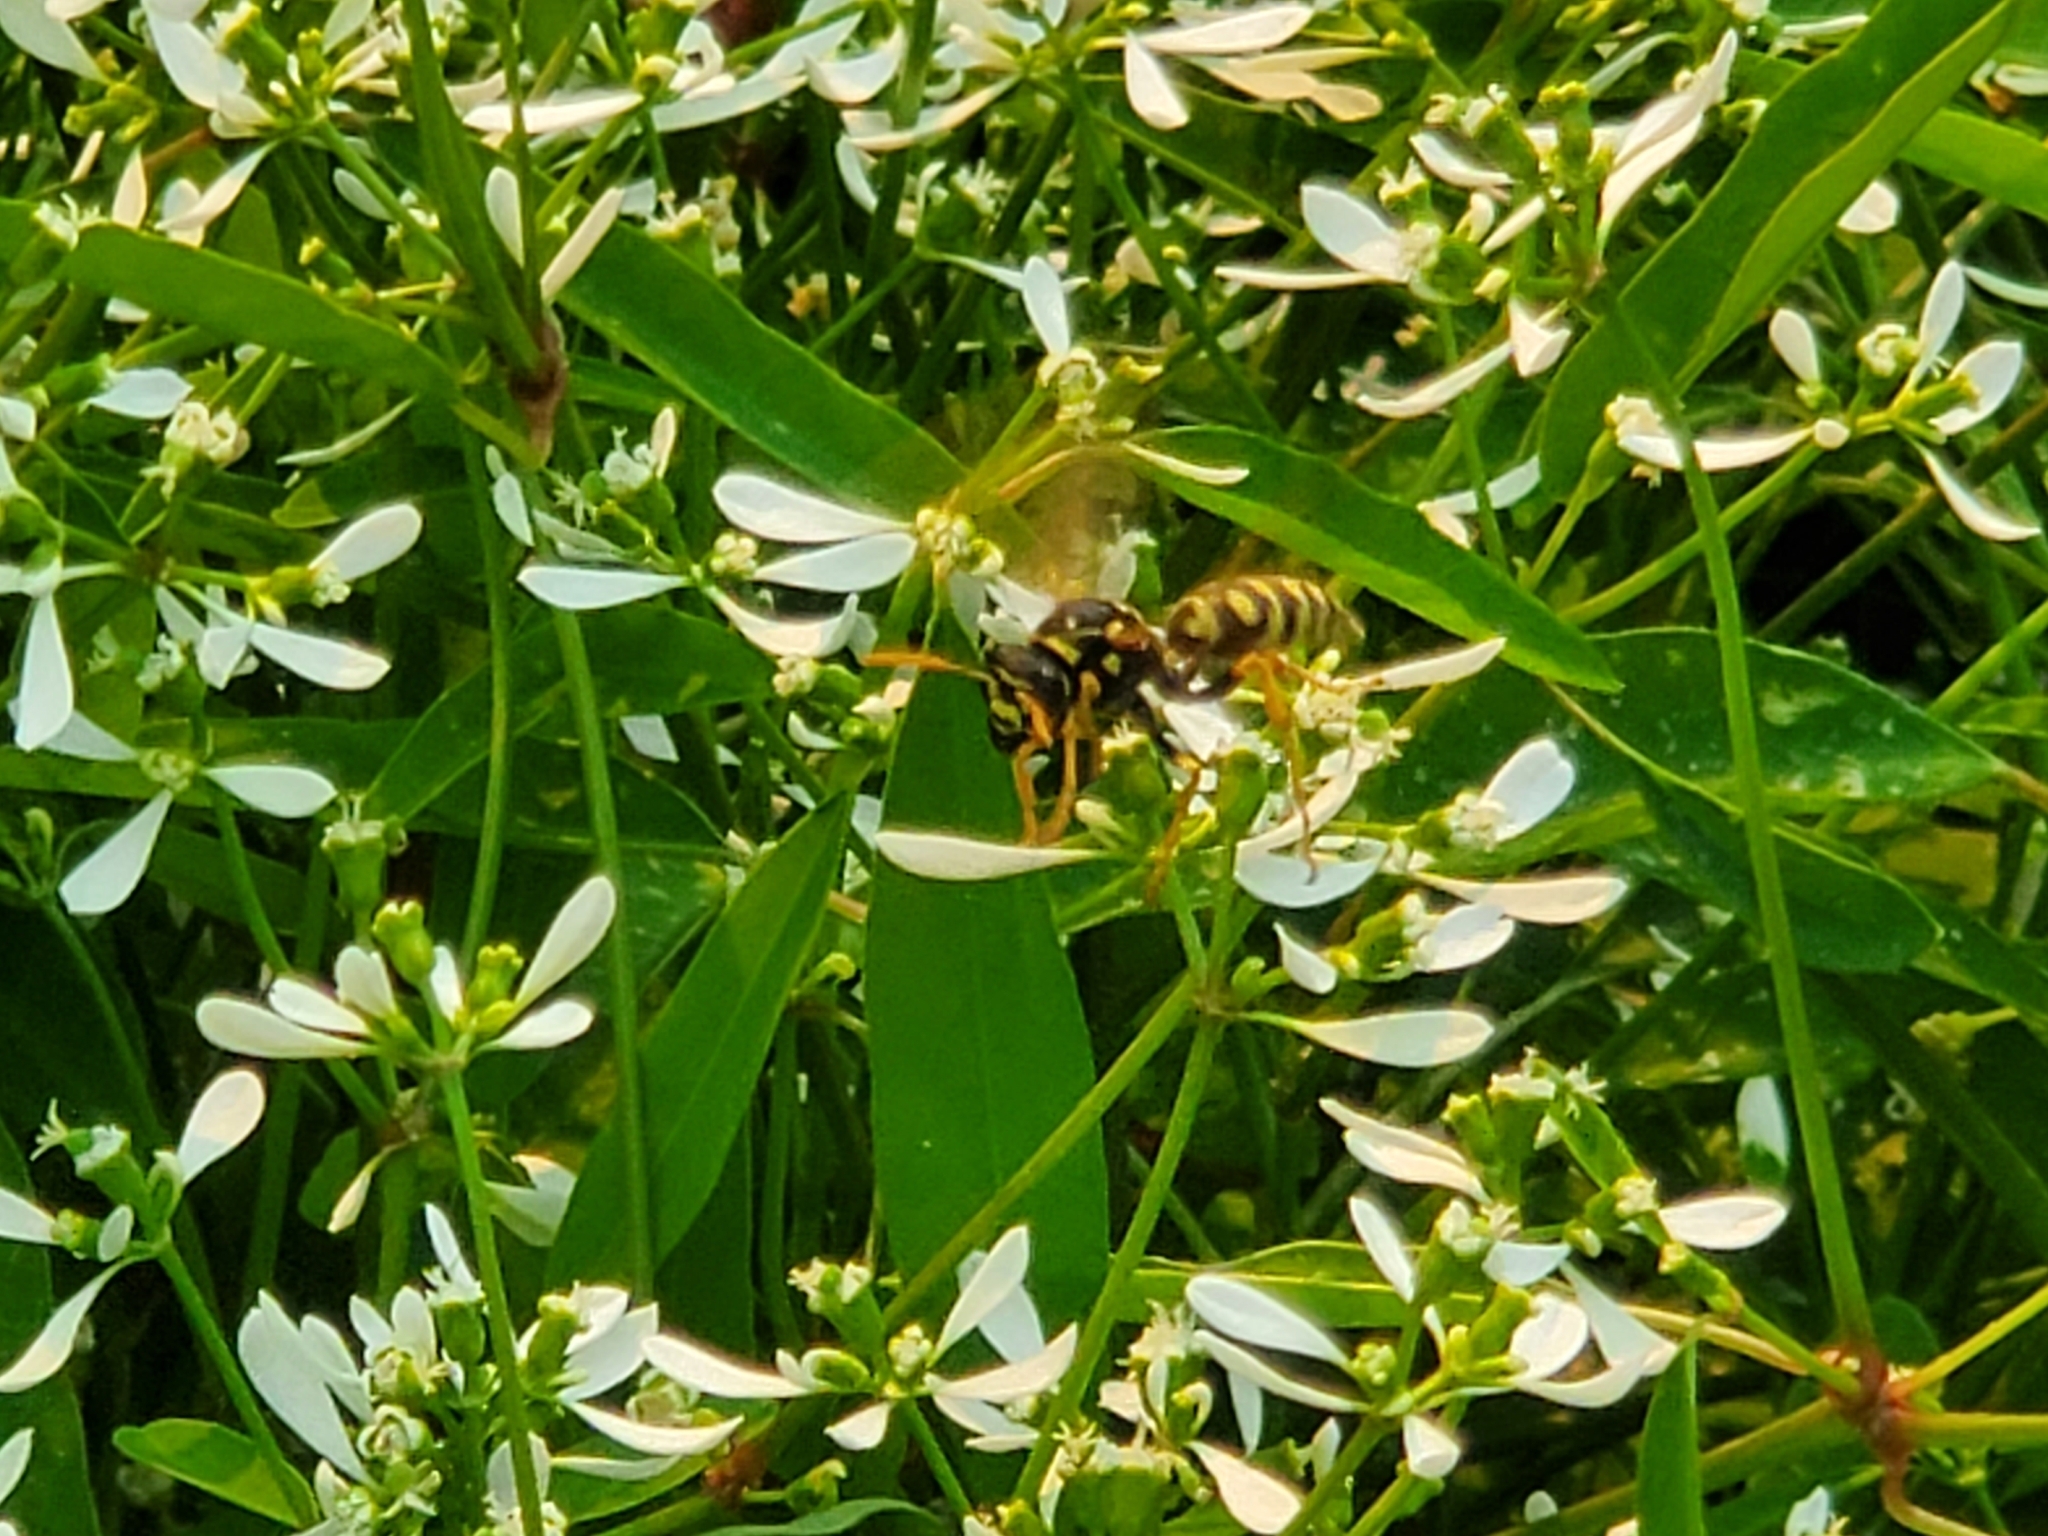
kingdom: Animalia
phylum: Arthropoda
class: Insecta
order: Hymenoptera
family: Eumenidae
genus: Polistes
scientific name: Polistes dominula
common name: Paper wasp
